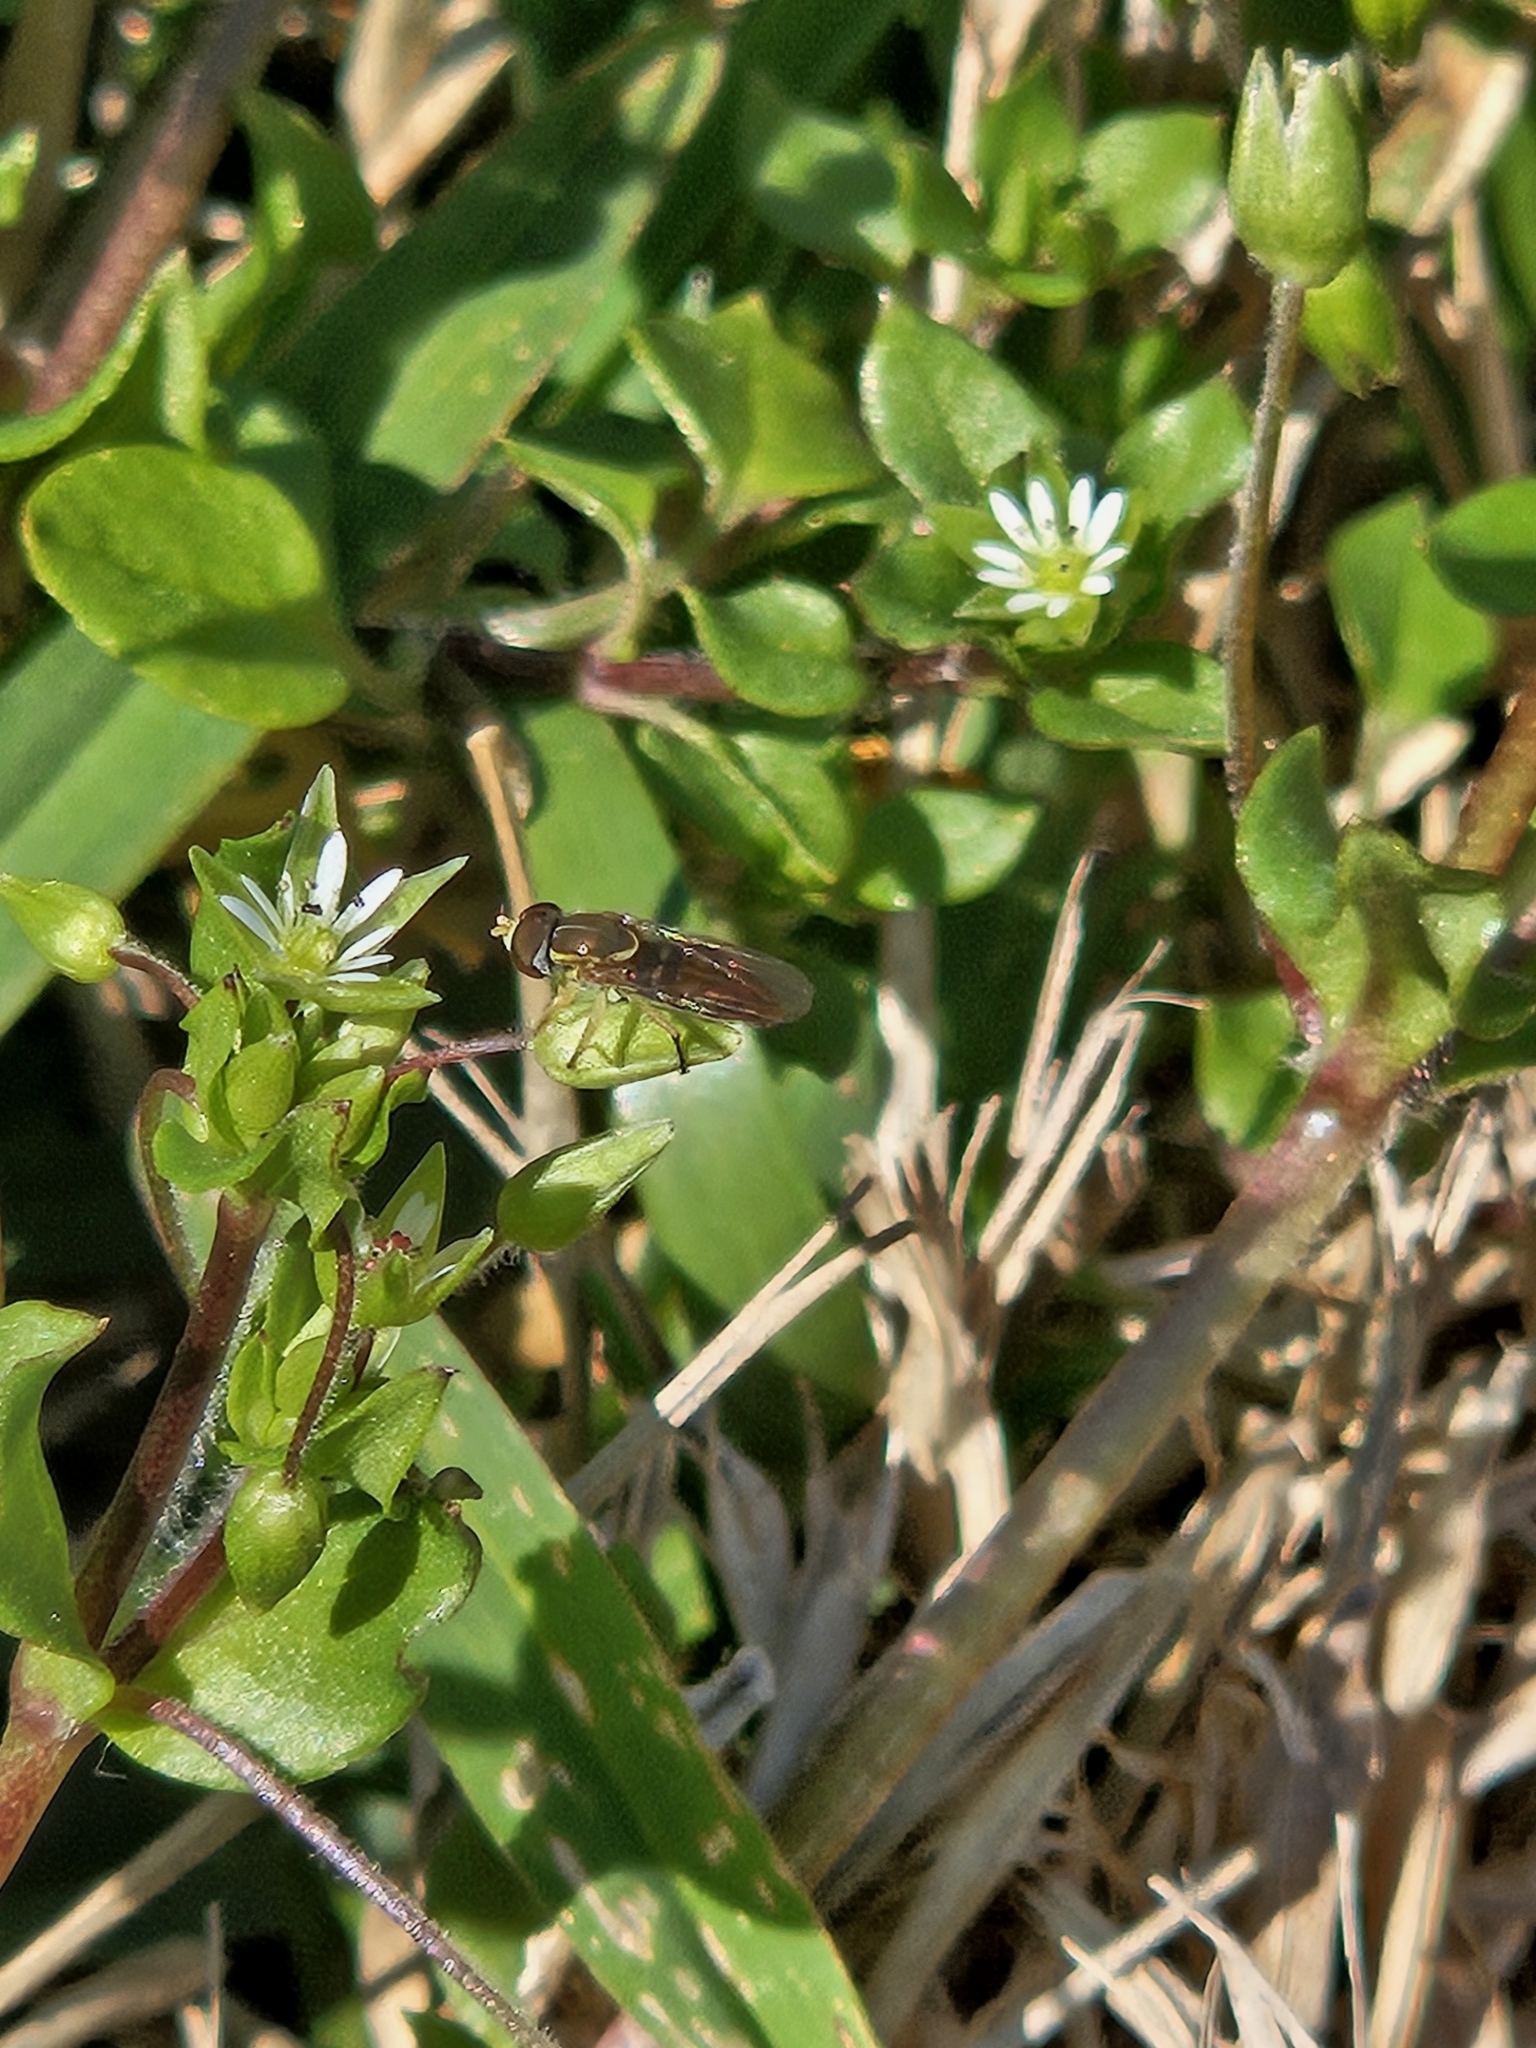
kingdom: Animalia
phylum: Arthropoda
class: Insecta
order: Diptera
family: Syrphidae
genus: Toxomerus
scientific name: Toxomerus marginatus
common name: Syrphid fly
